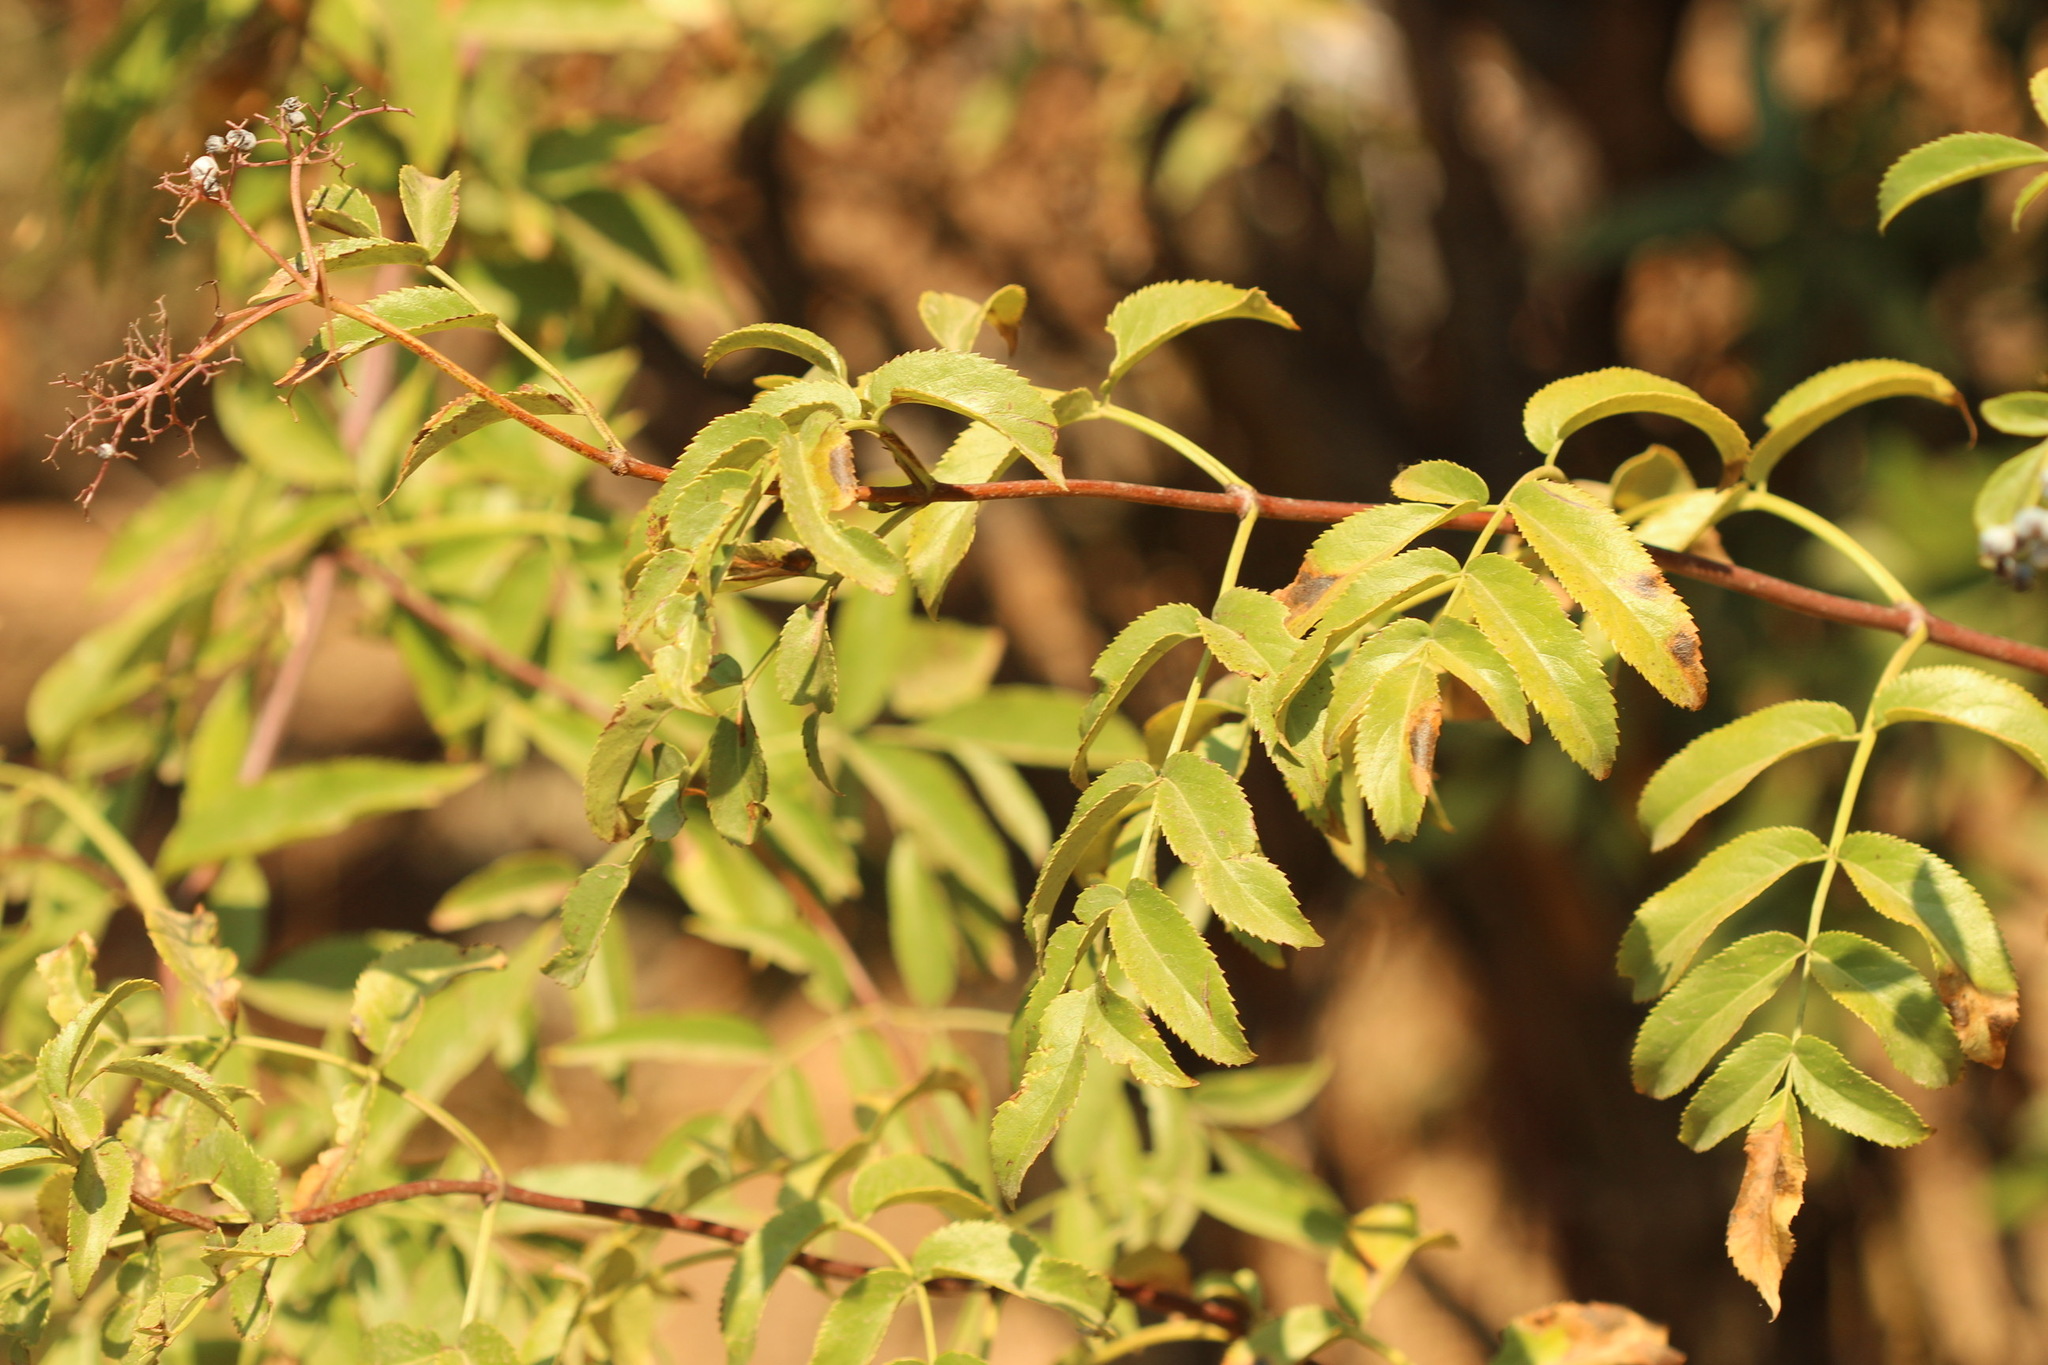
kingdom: Plantae
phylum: Tracheophyta
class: Magnoliopsida
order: Dipsacales
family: Viburnaceae
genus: Sambucus
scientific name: Sambucus cerulea
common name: Blue elder
